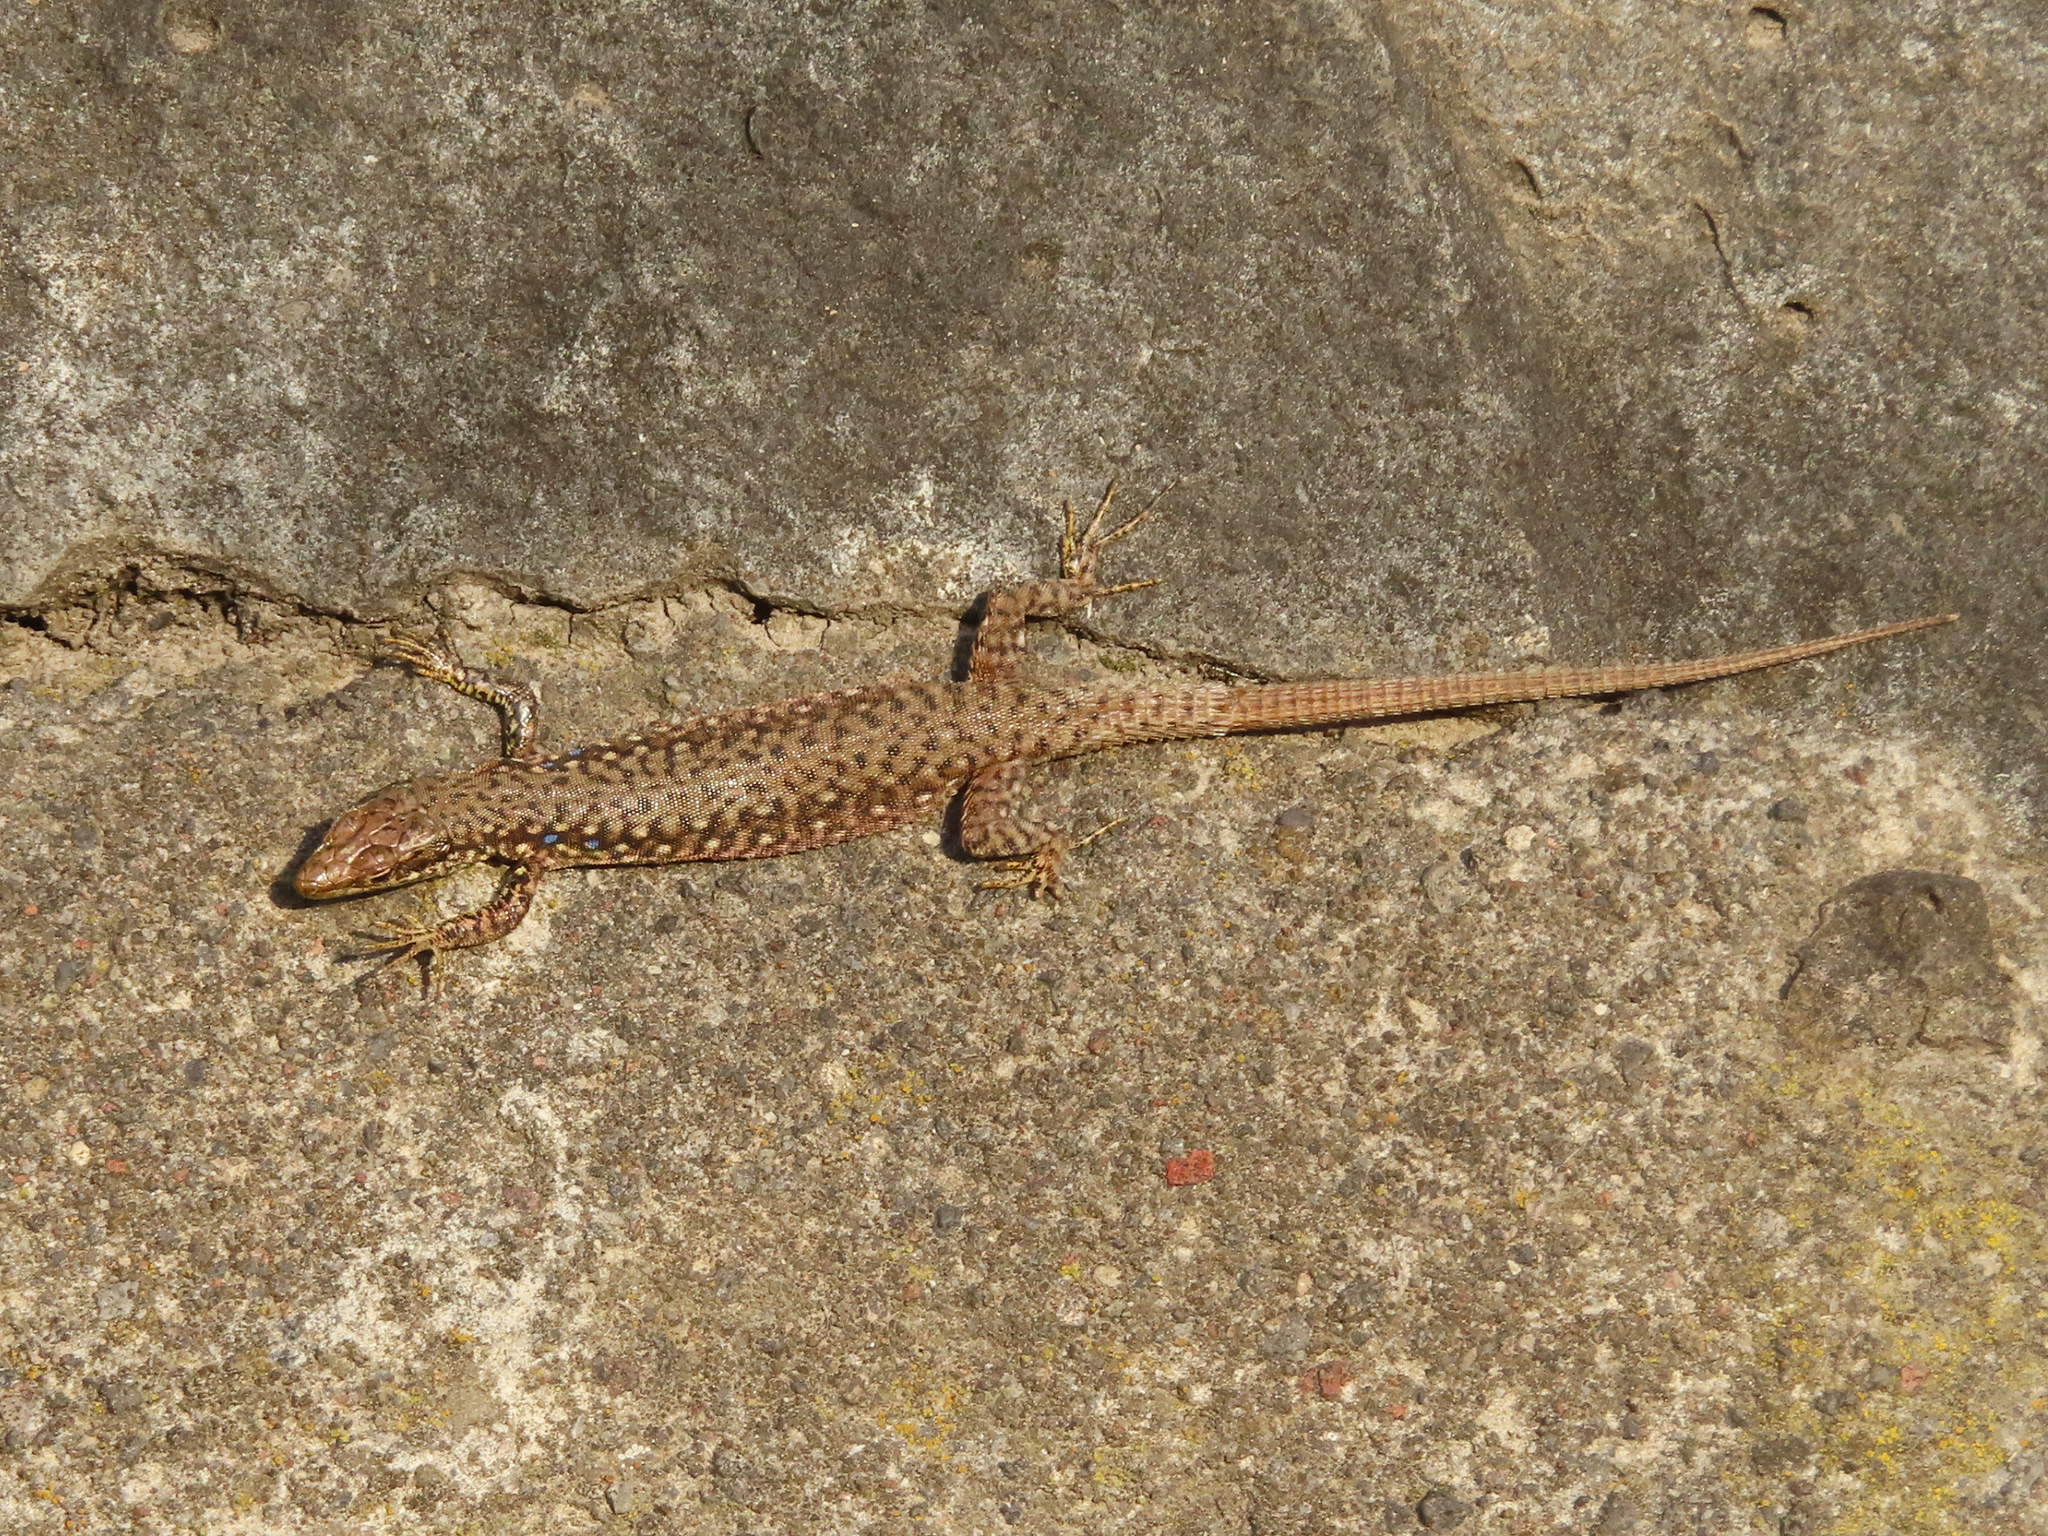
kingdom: Animalia
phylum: Chordata
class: Squamata
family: Lacertidae
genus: Darevskia
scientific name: Darevskia
